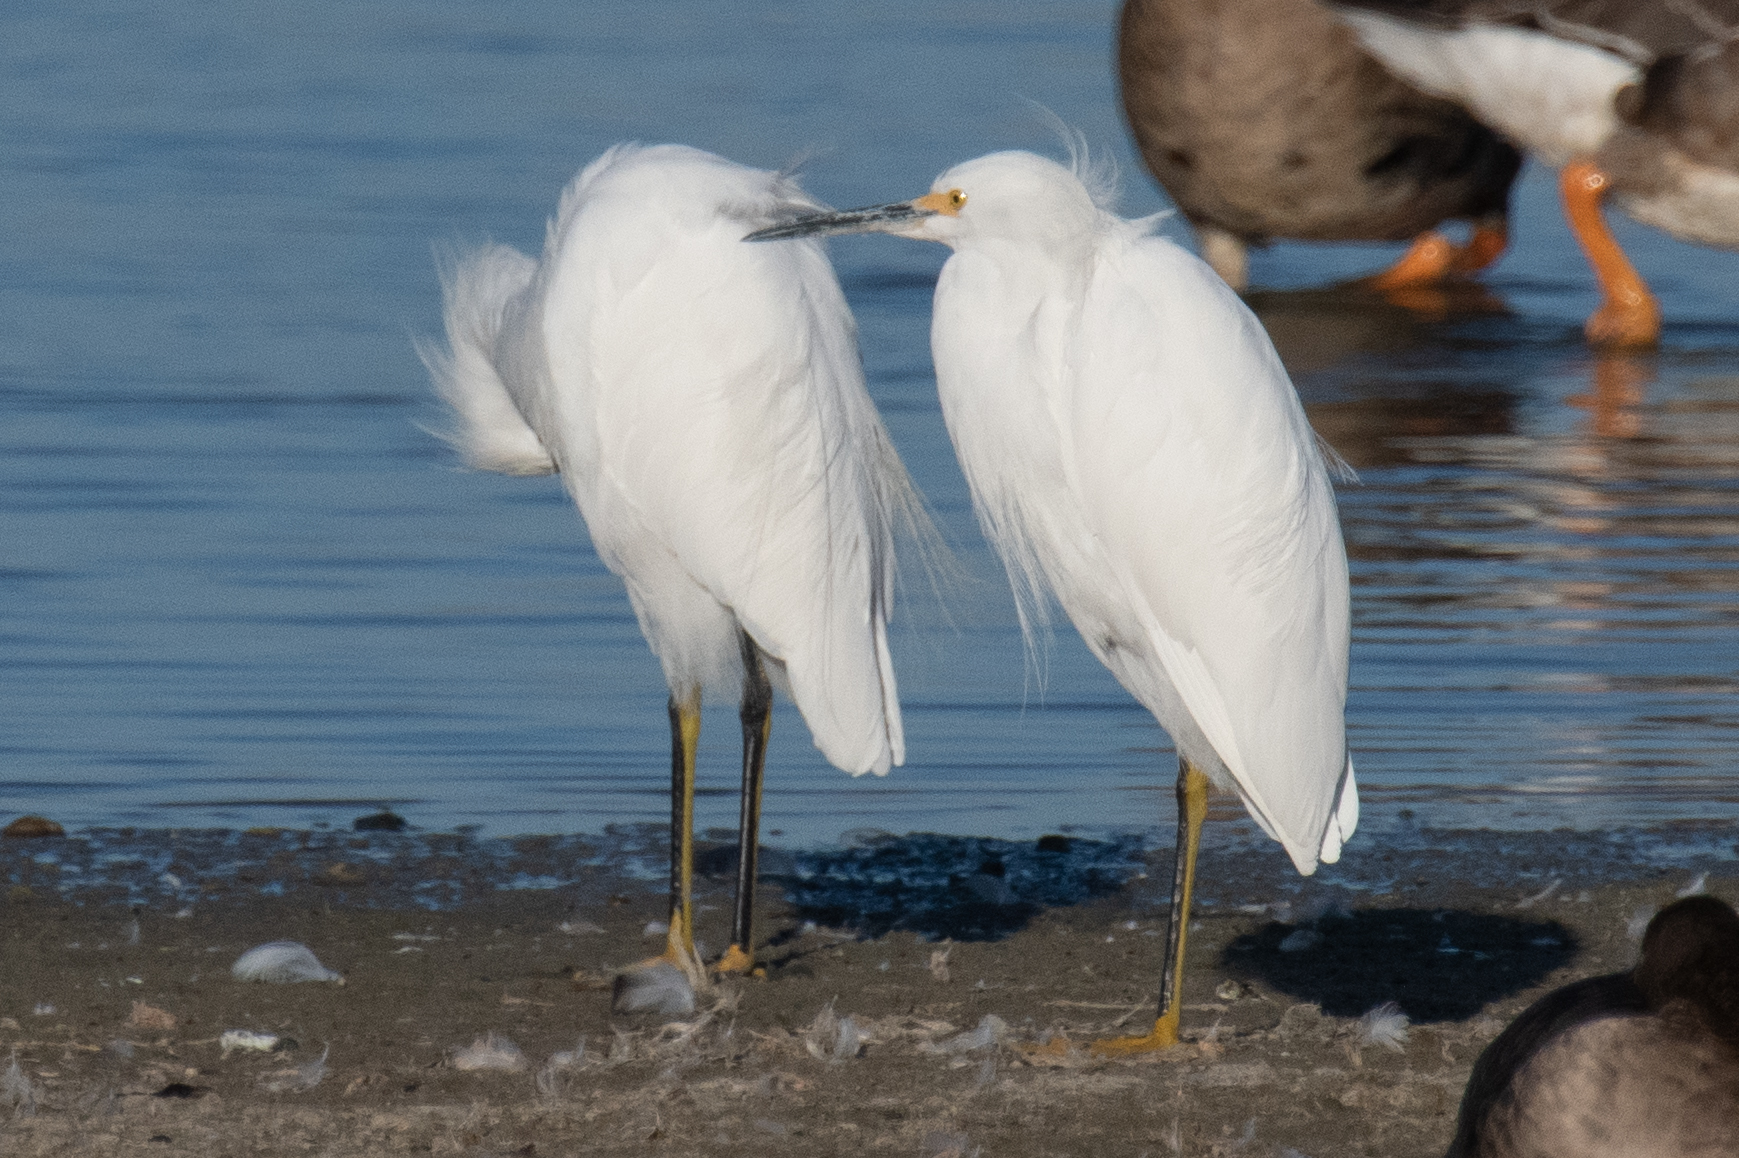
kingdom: Animalia
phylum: Chordata
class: Aves
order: Pelecaniformes
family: Ardeidae
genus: Egretta
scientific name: Egretta thula
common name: Snowy egret
